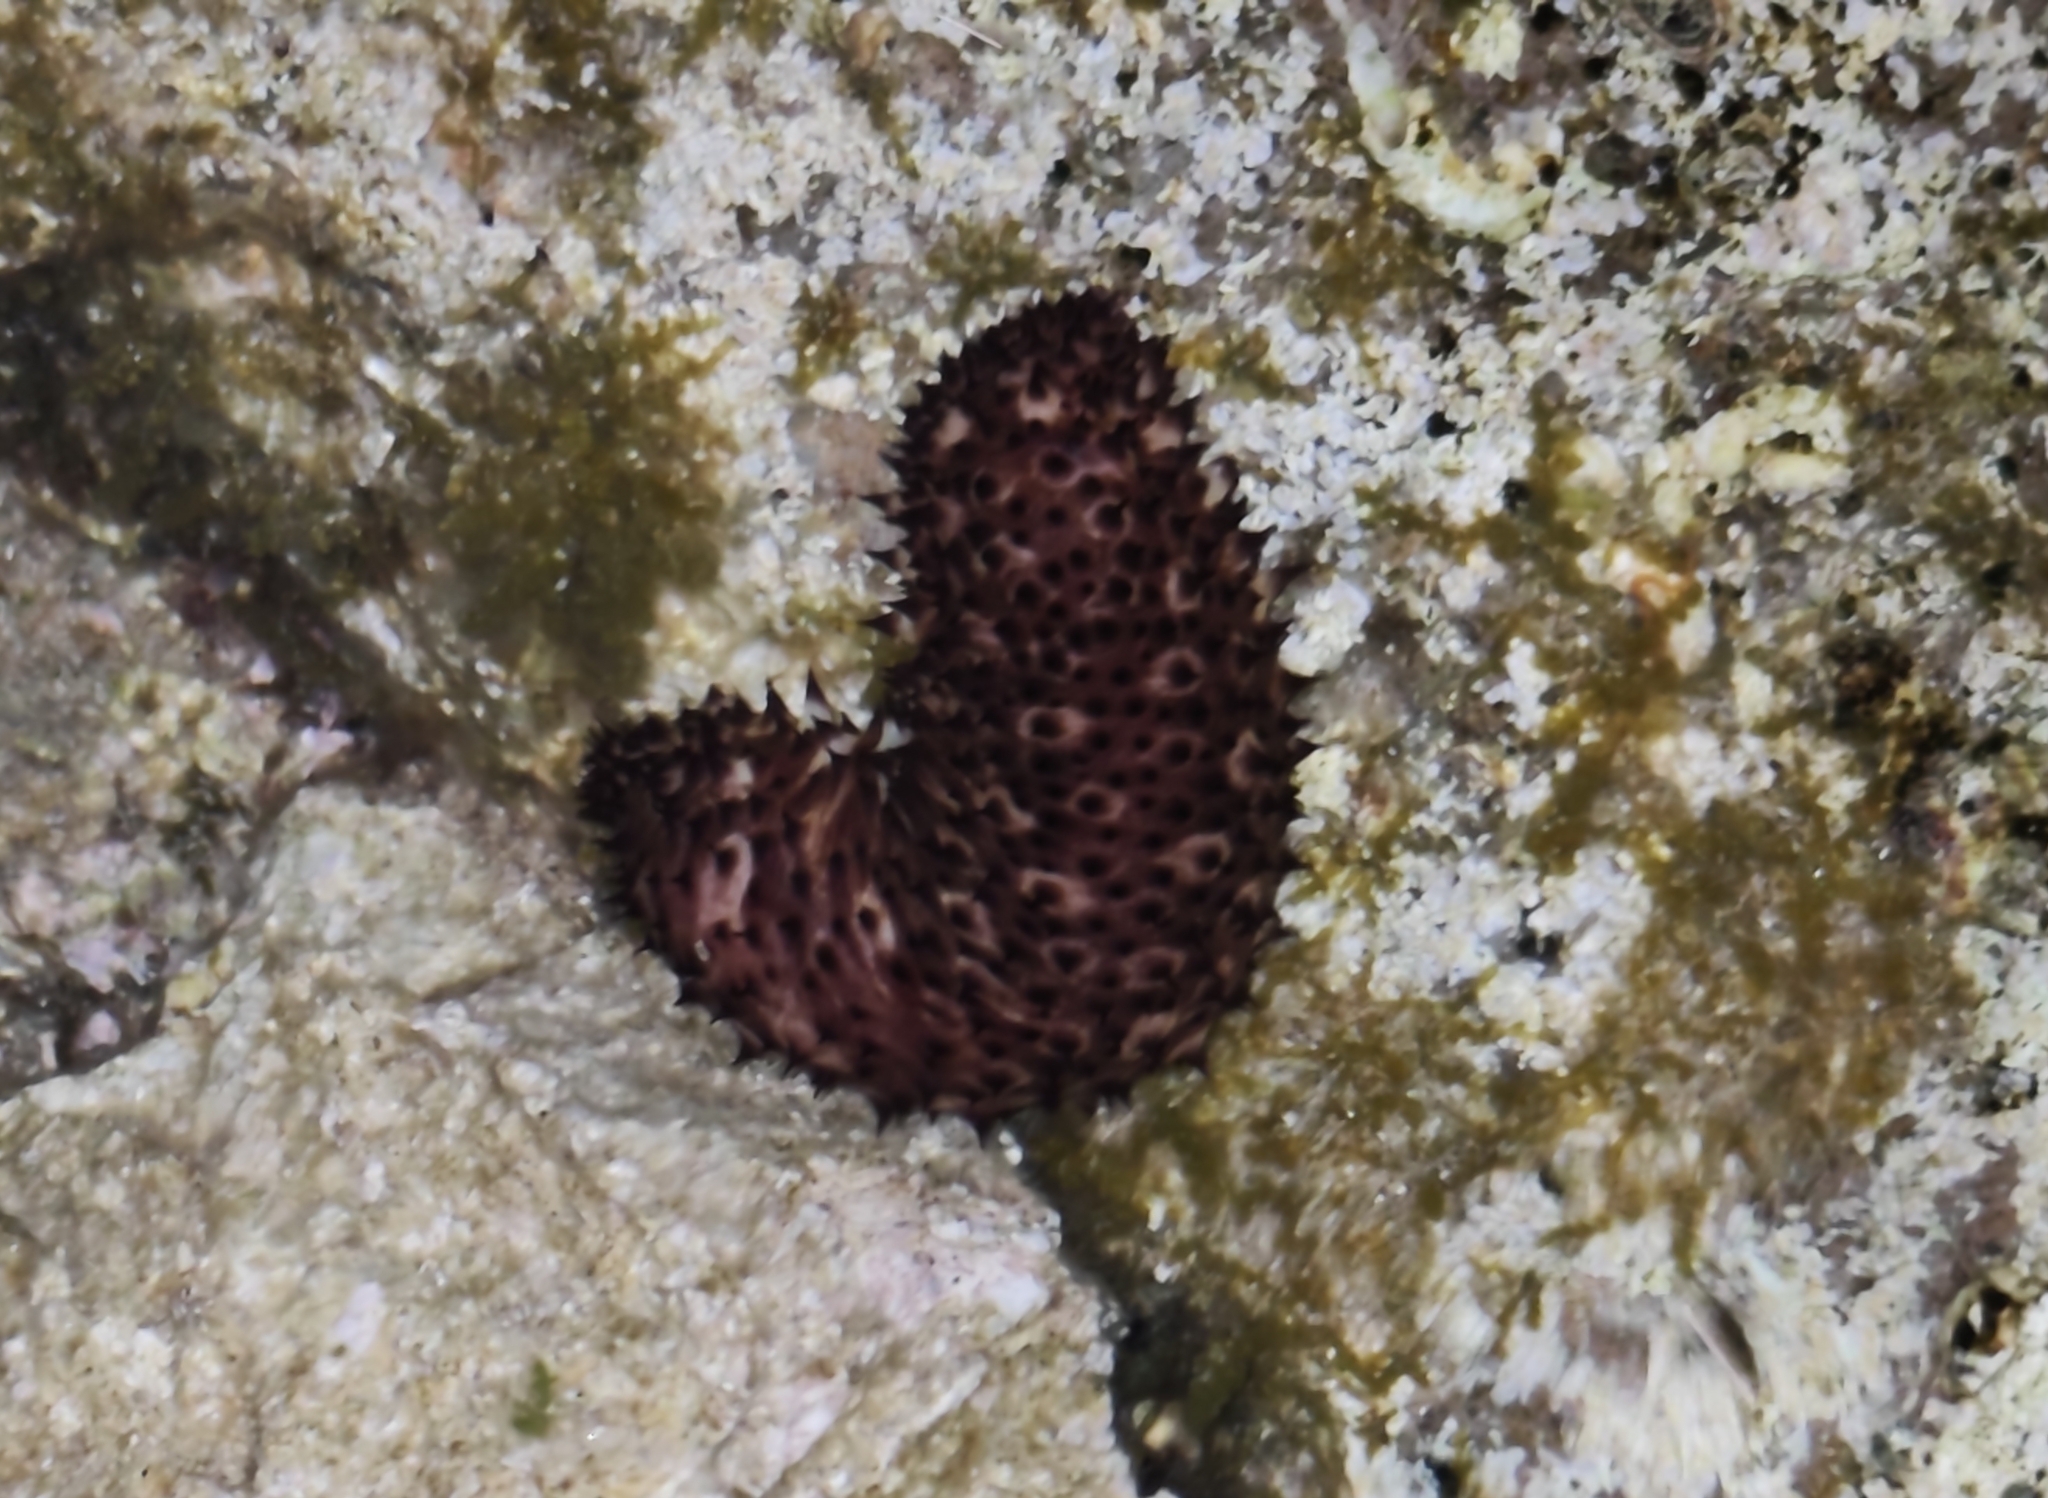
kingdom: Animalia
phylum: Echinodermata
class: Holothuroidea
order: Holothuriida
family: Holothuriidae
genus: Holothuria
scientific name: Holothuria sanctori
